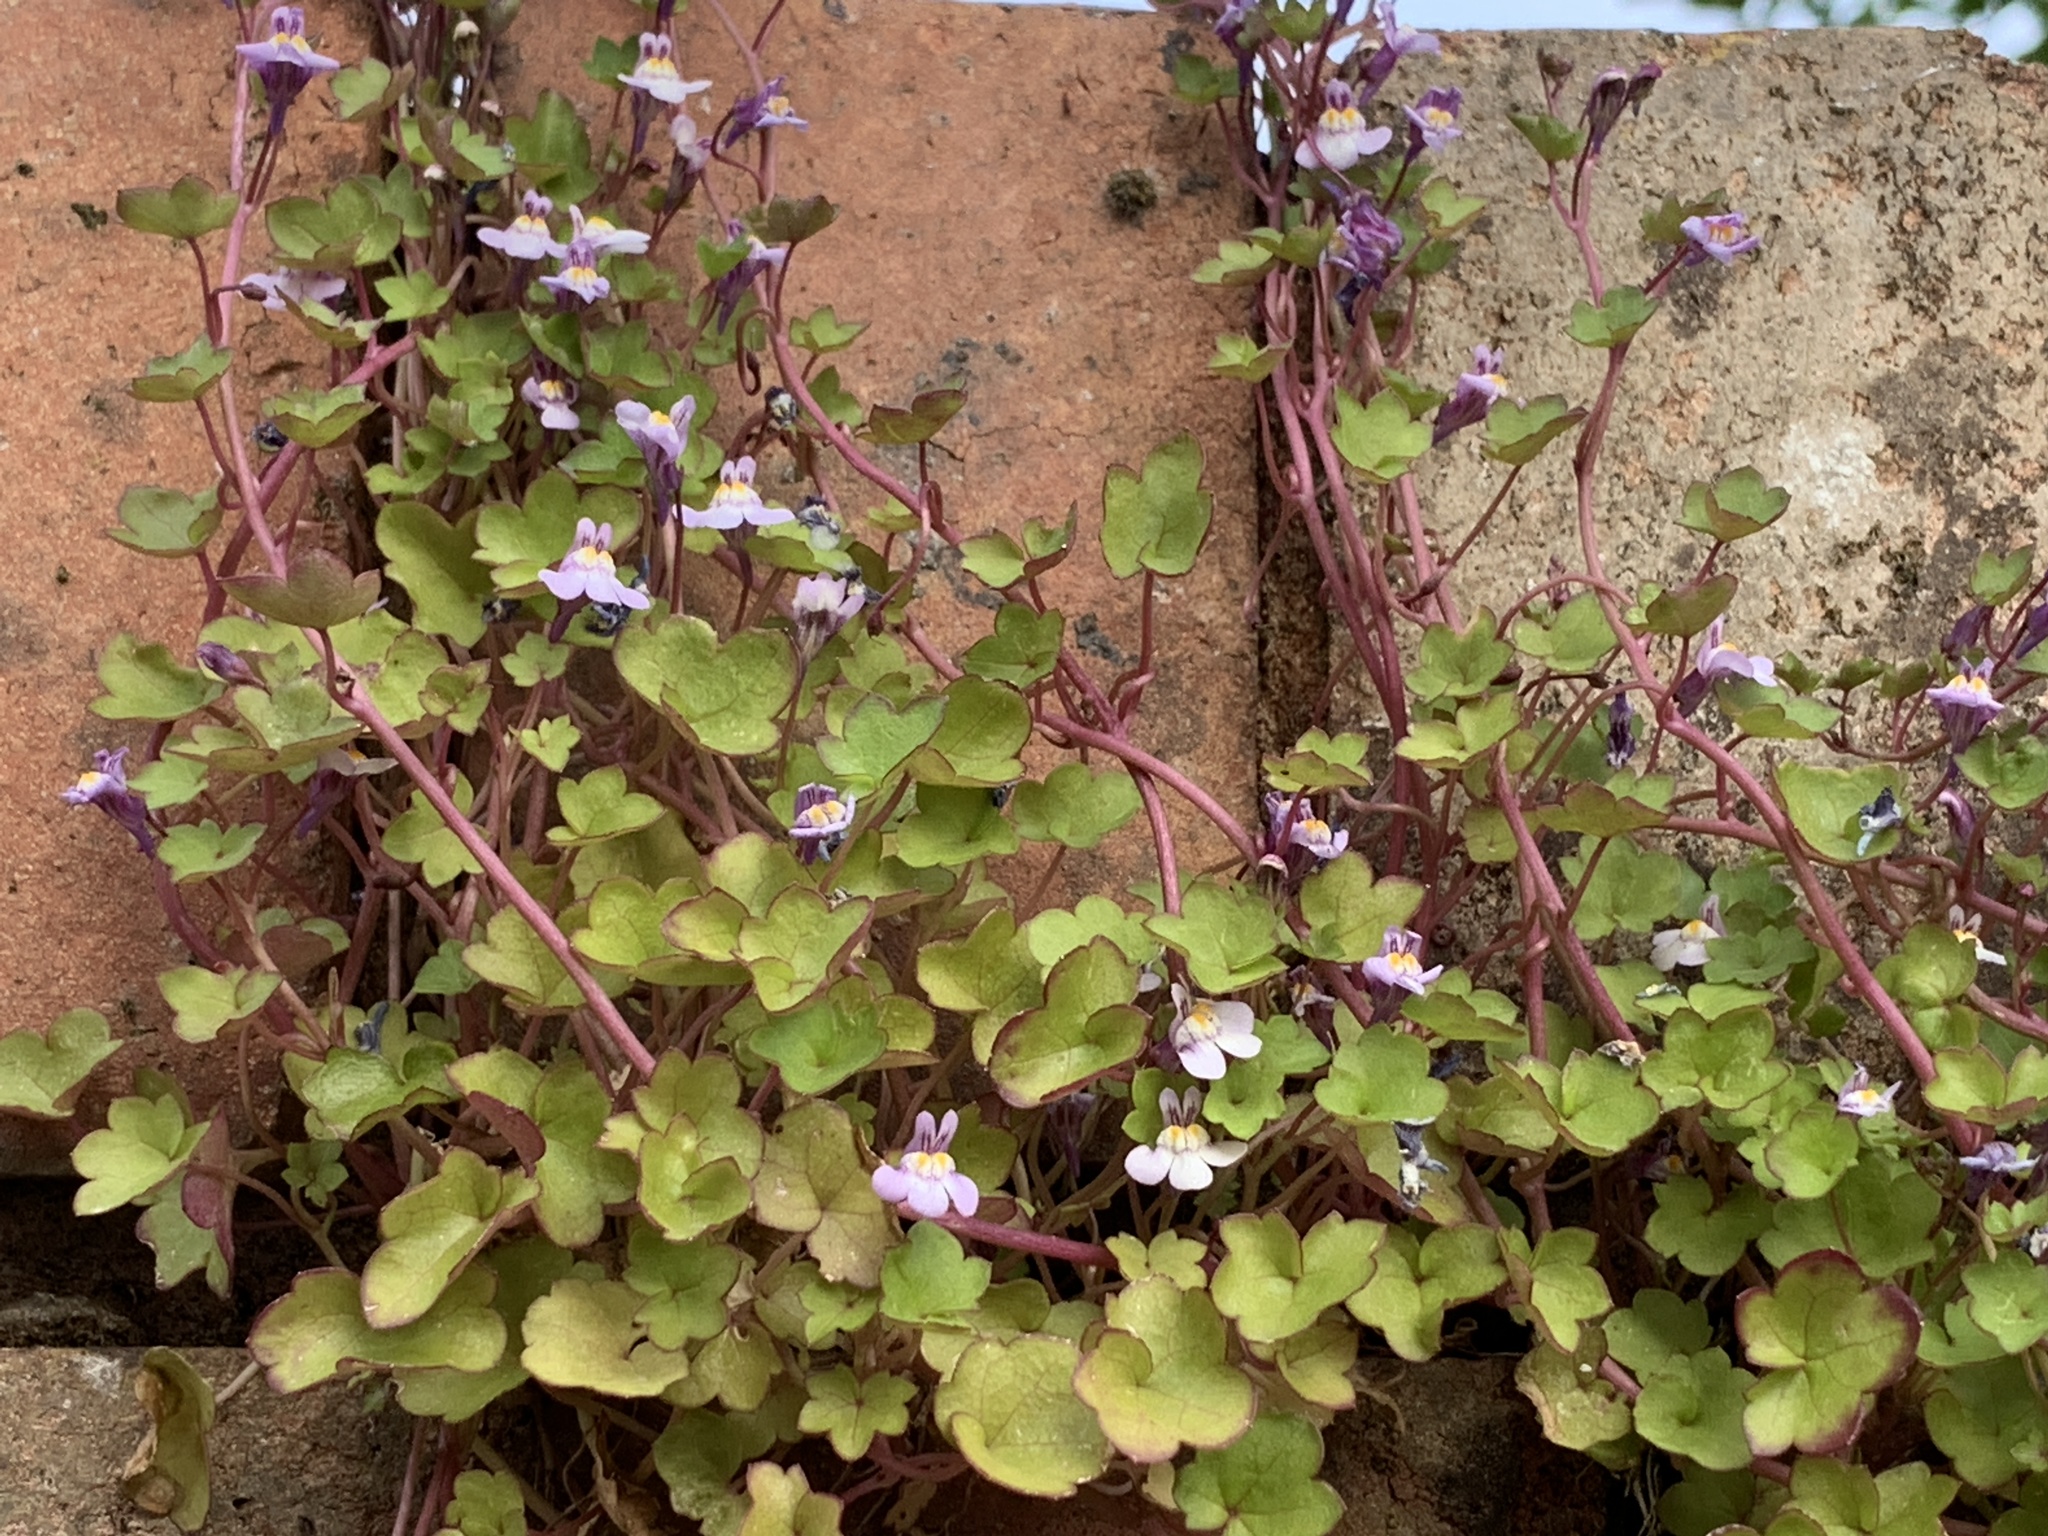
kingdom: Plantae
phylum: Tracheophyta
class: Magnoliopsida
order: Lamiales
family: Plantaginaceae
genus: Cymbalaria
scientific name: Cymbalaria muralis
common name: Ivy-leaved toadflax
